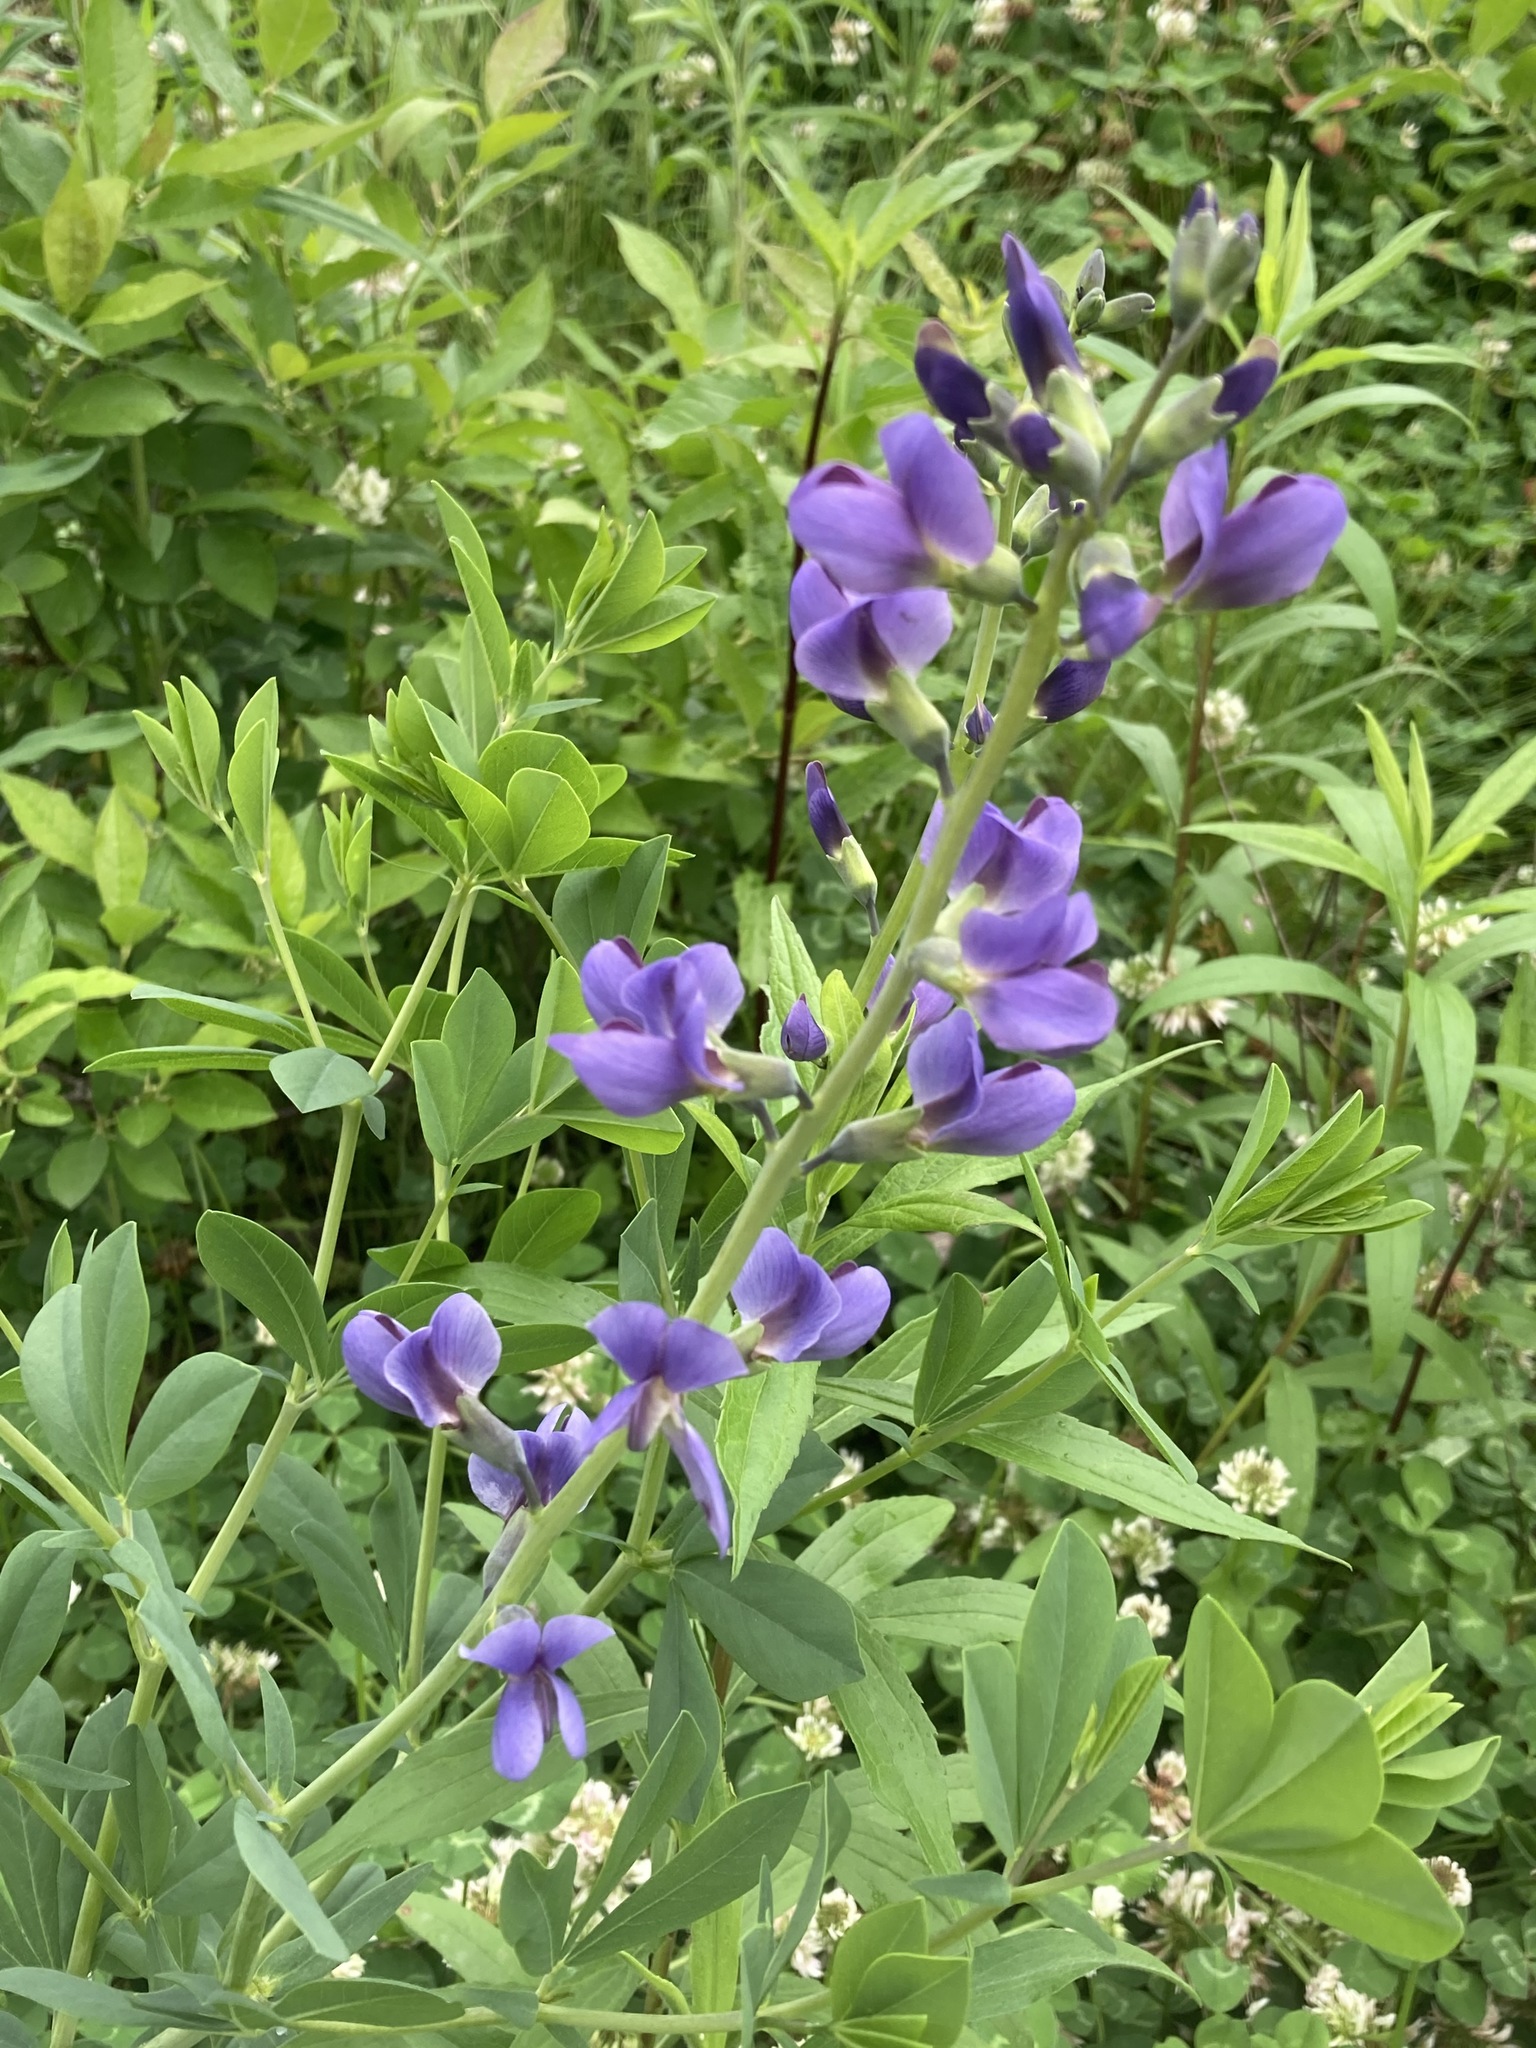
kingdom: Plantae
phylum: Tracheophyta
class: Magnoliopsida
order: Fabales
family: Fabaceae
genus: Baptisia
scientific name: Baptisia australis
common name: Blue false indigo
